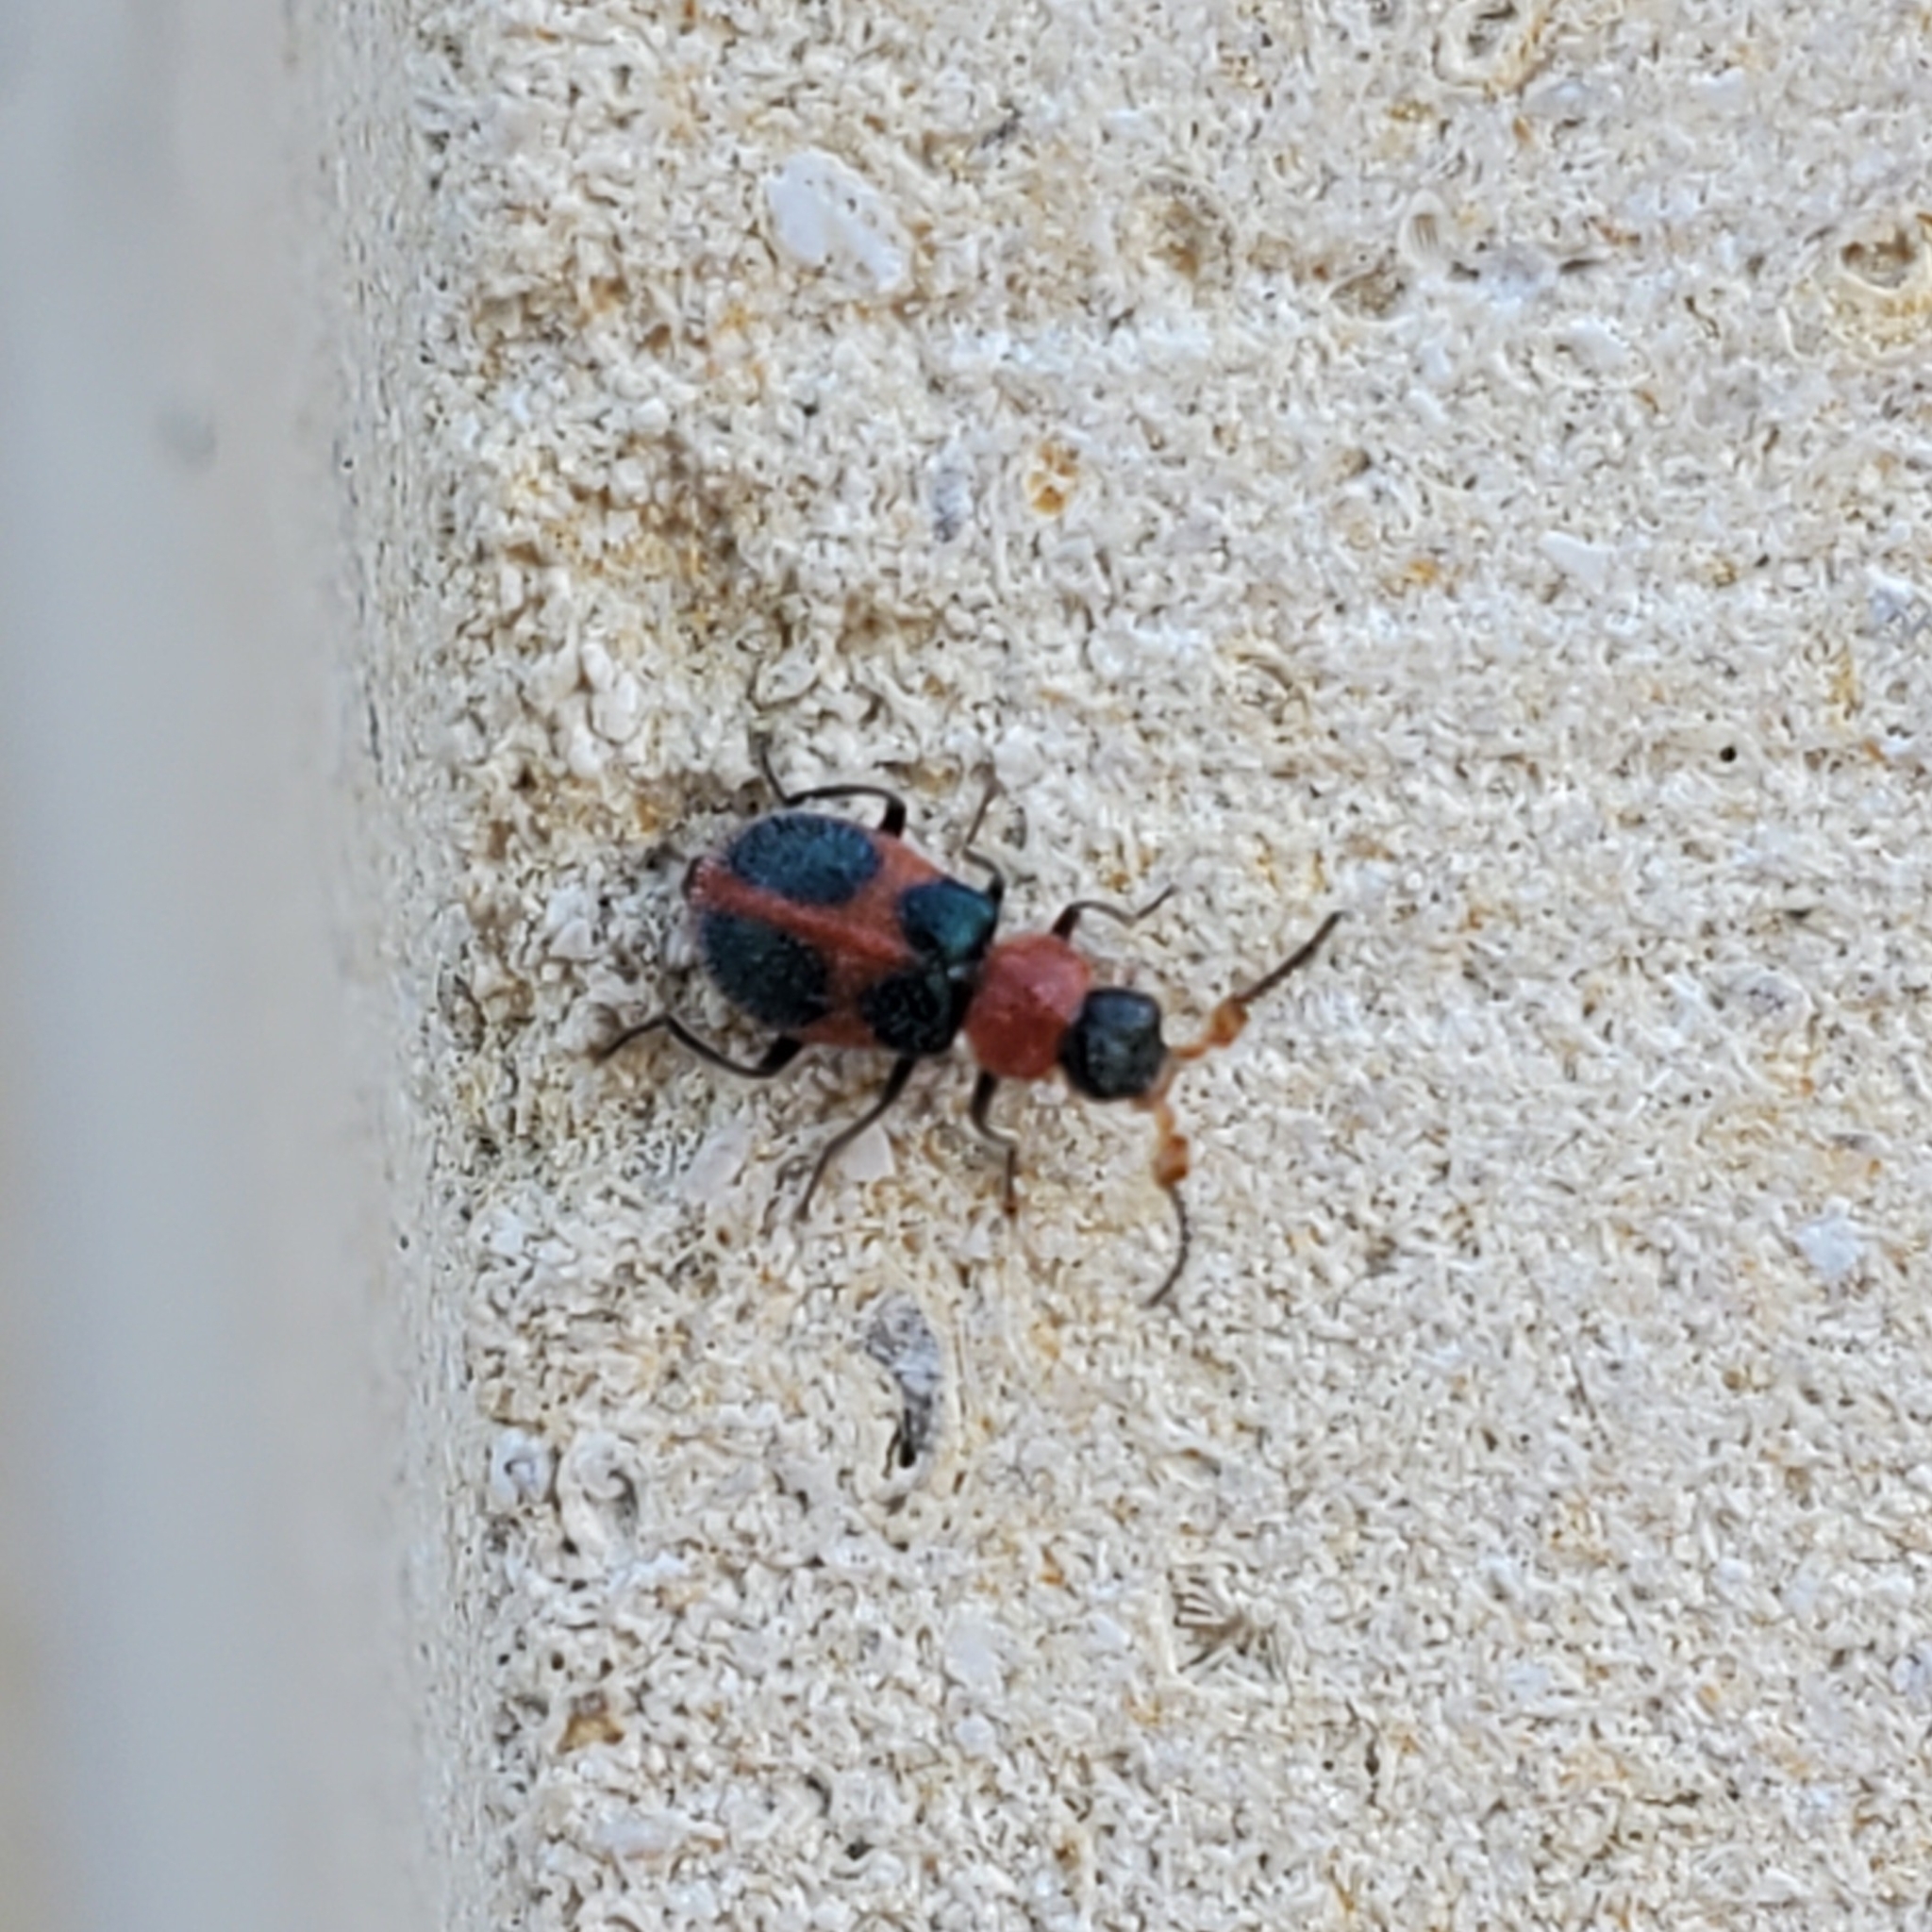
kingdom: Animalia
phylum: Arthropoda
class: Insecta
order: Coleoptera
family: Melyridae
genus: Collops
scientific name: Collops quadrimaculatus
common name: Four-spotted collops
